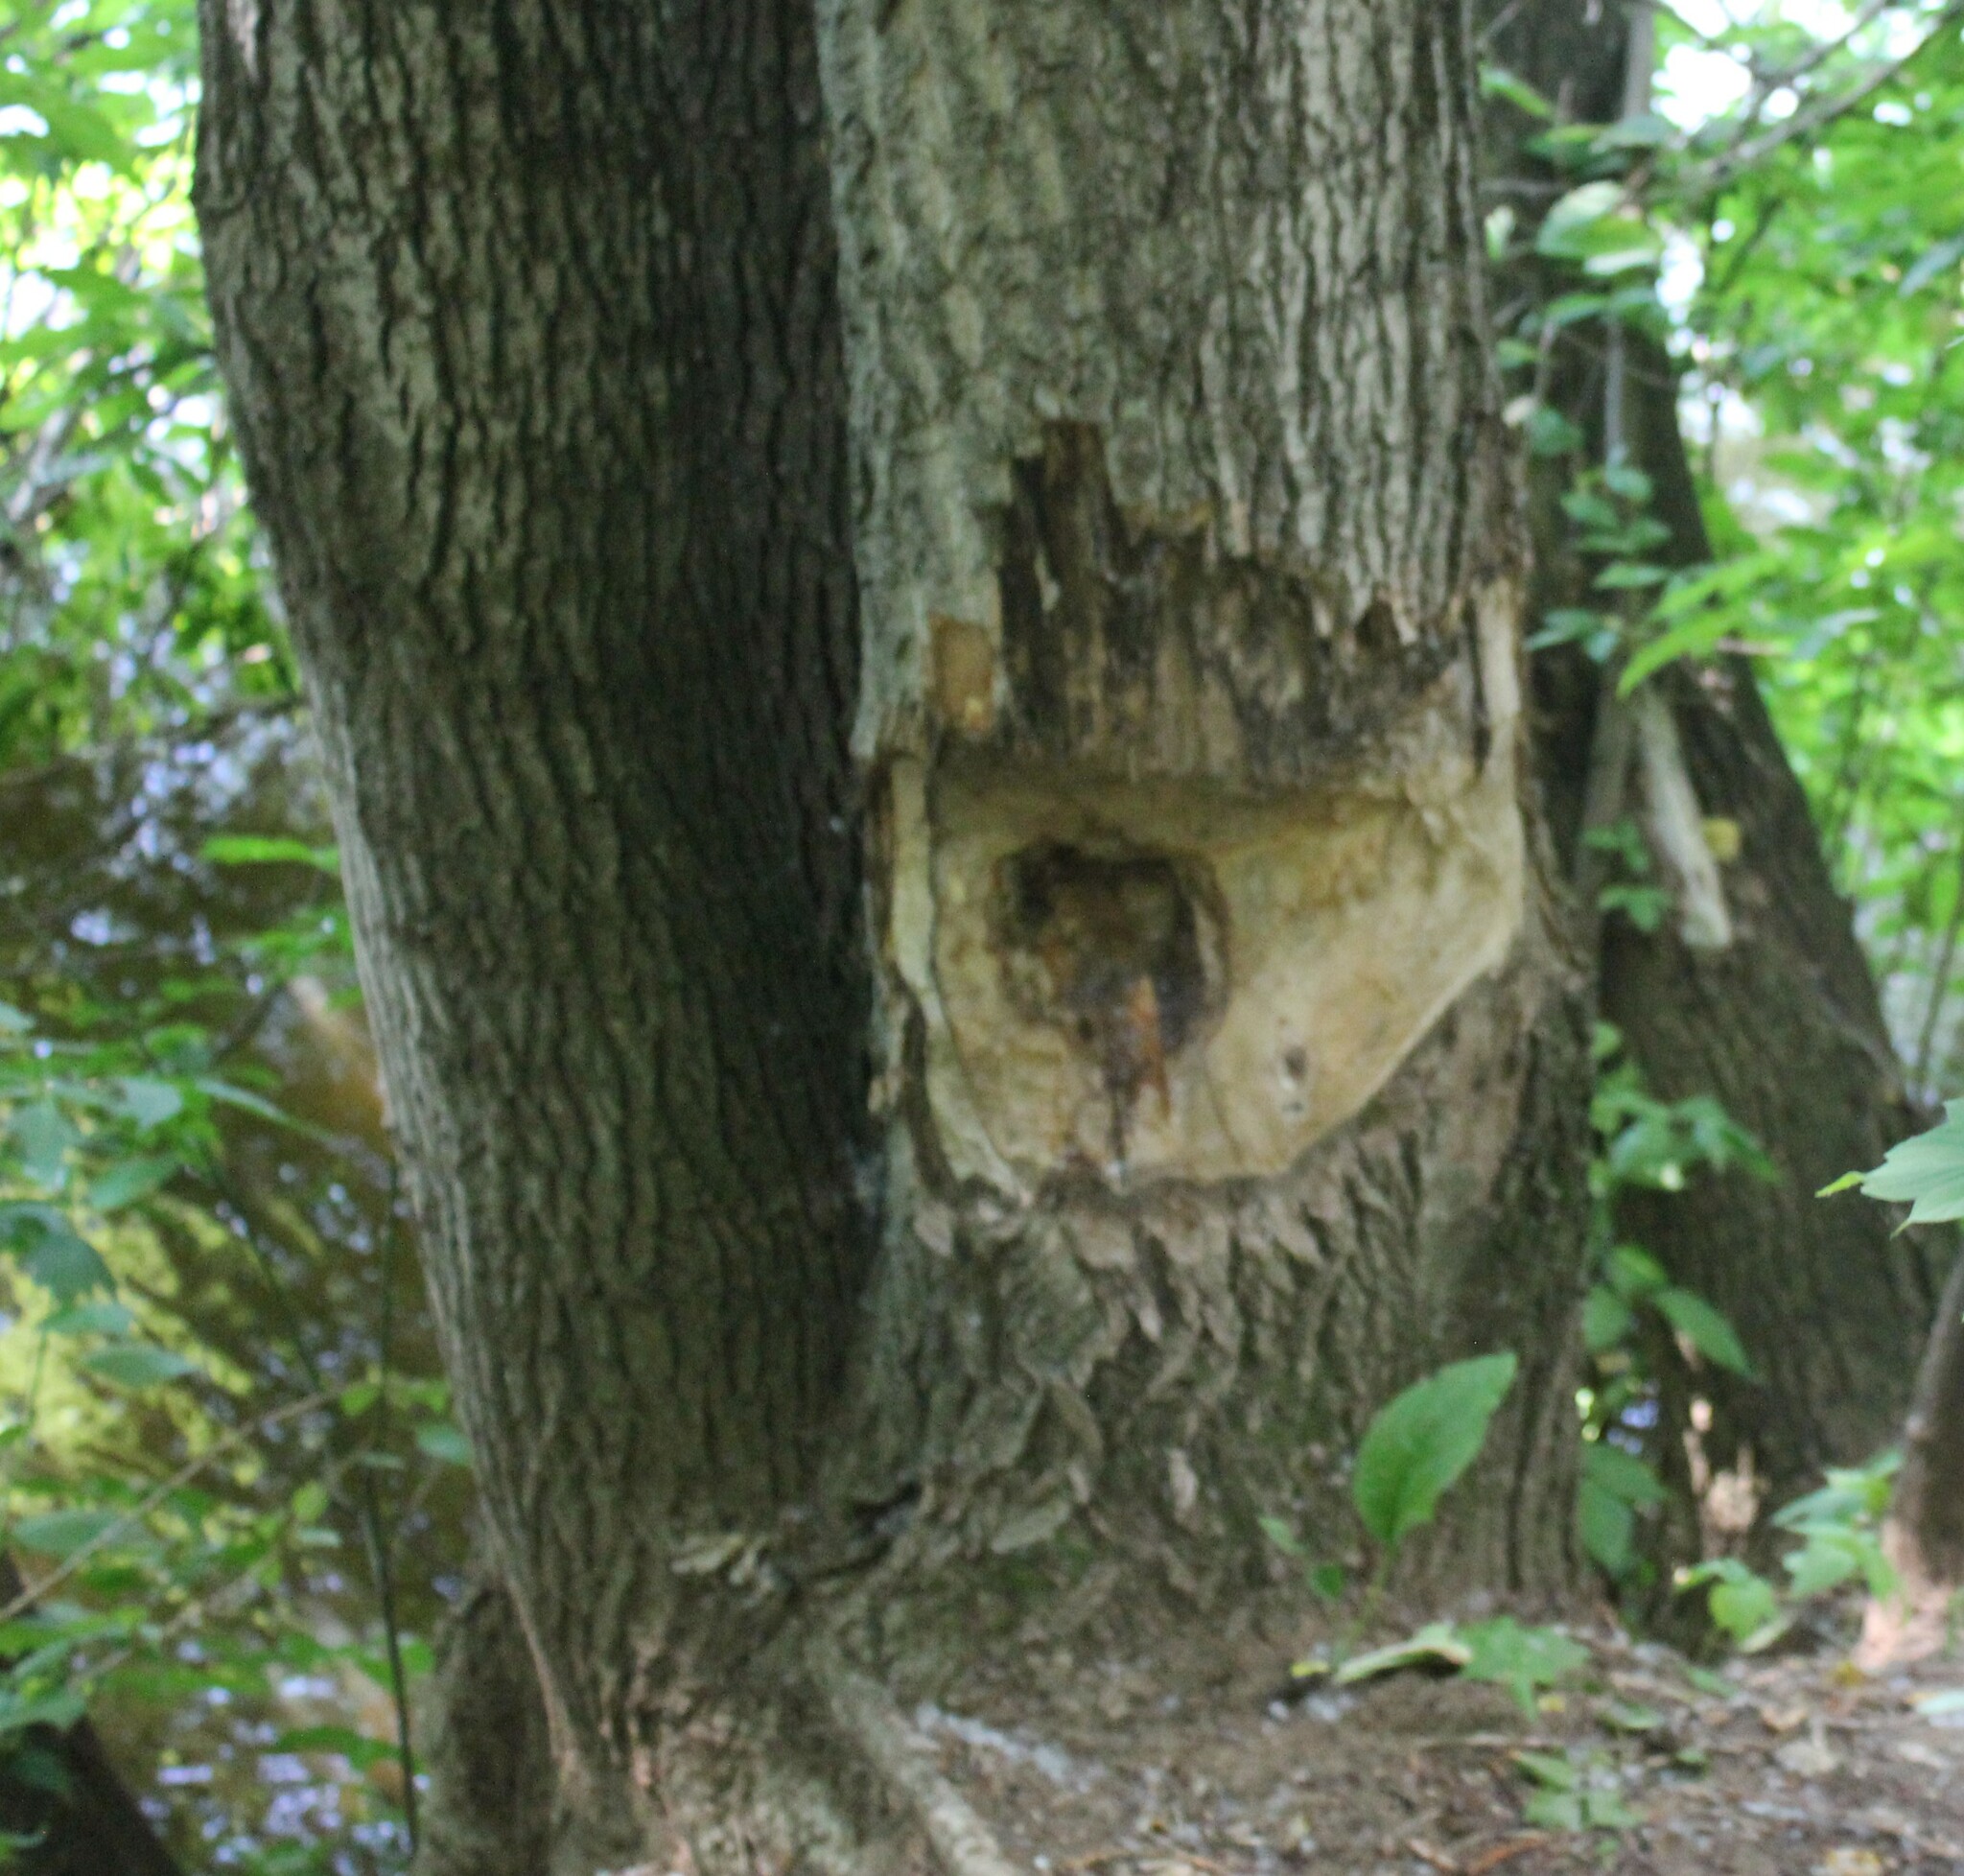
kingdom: Animalia
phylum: Chordata
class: Mammalia
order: Rodentia
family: Castoridae
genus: Castor
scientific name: Castor fiber
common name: Eurasian beaver
